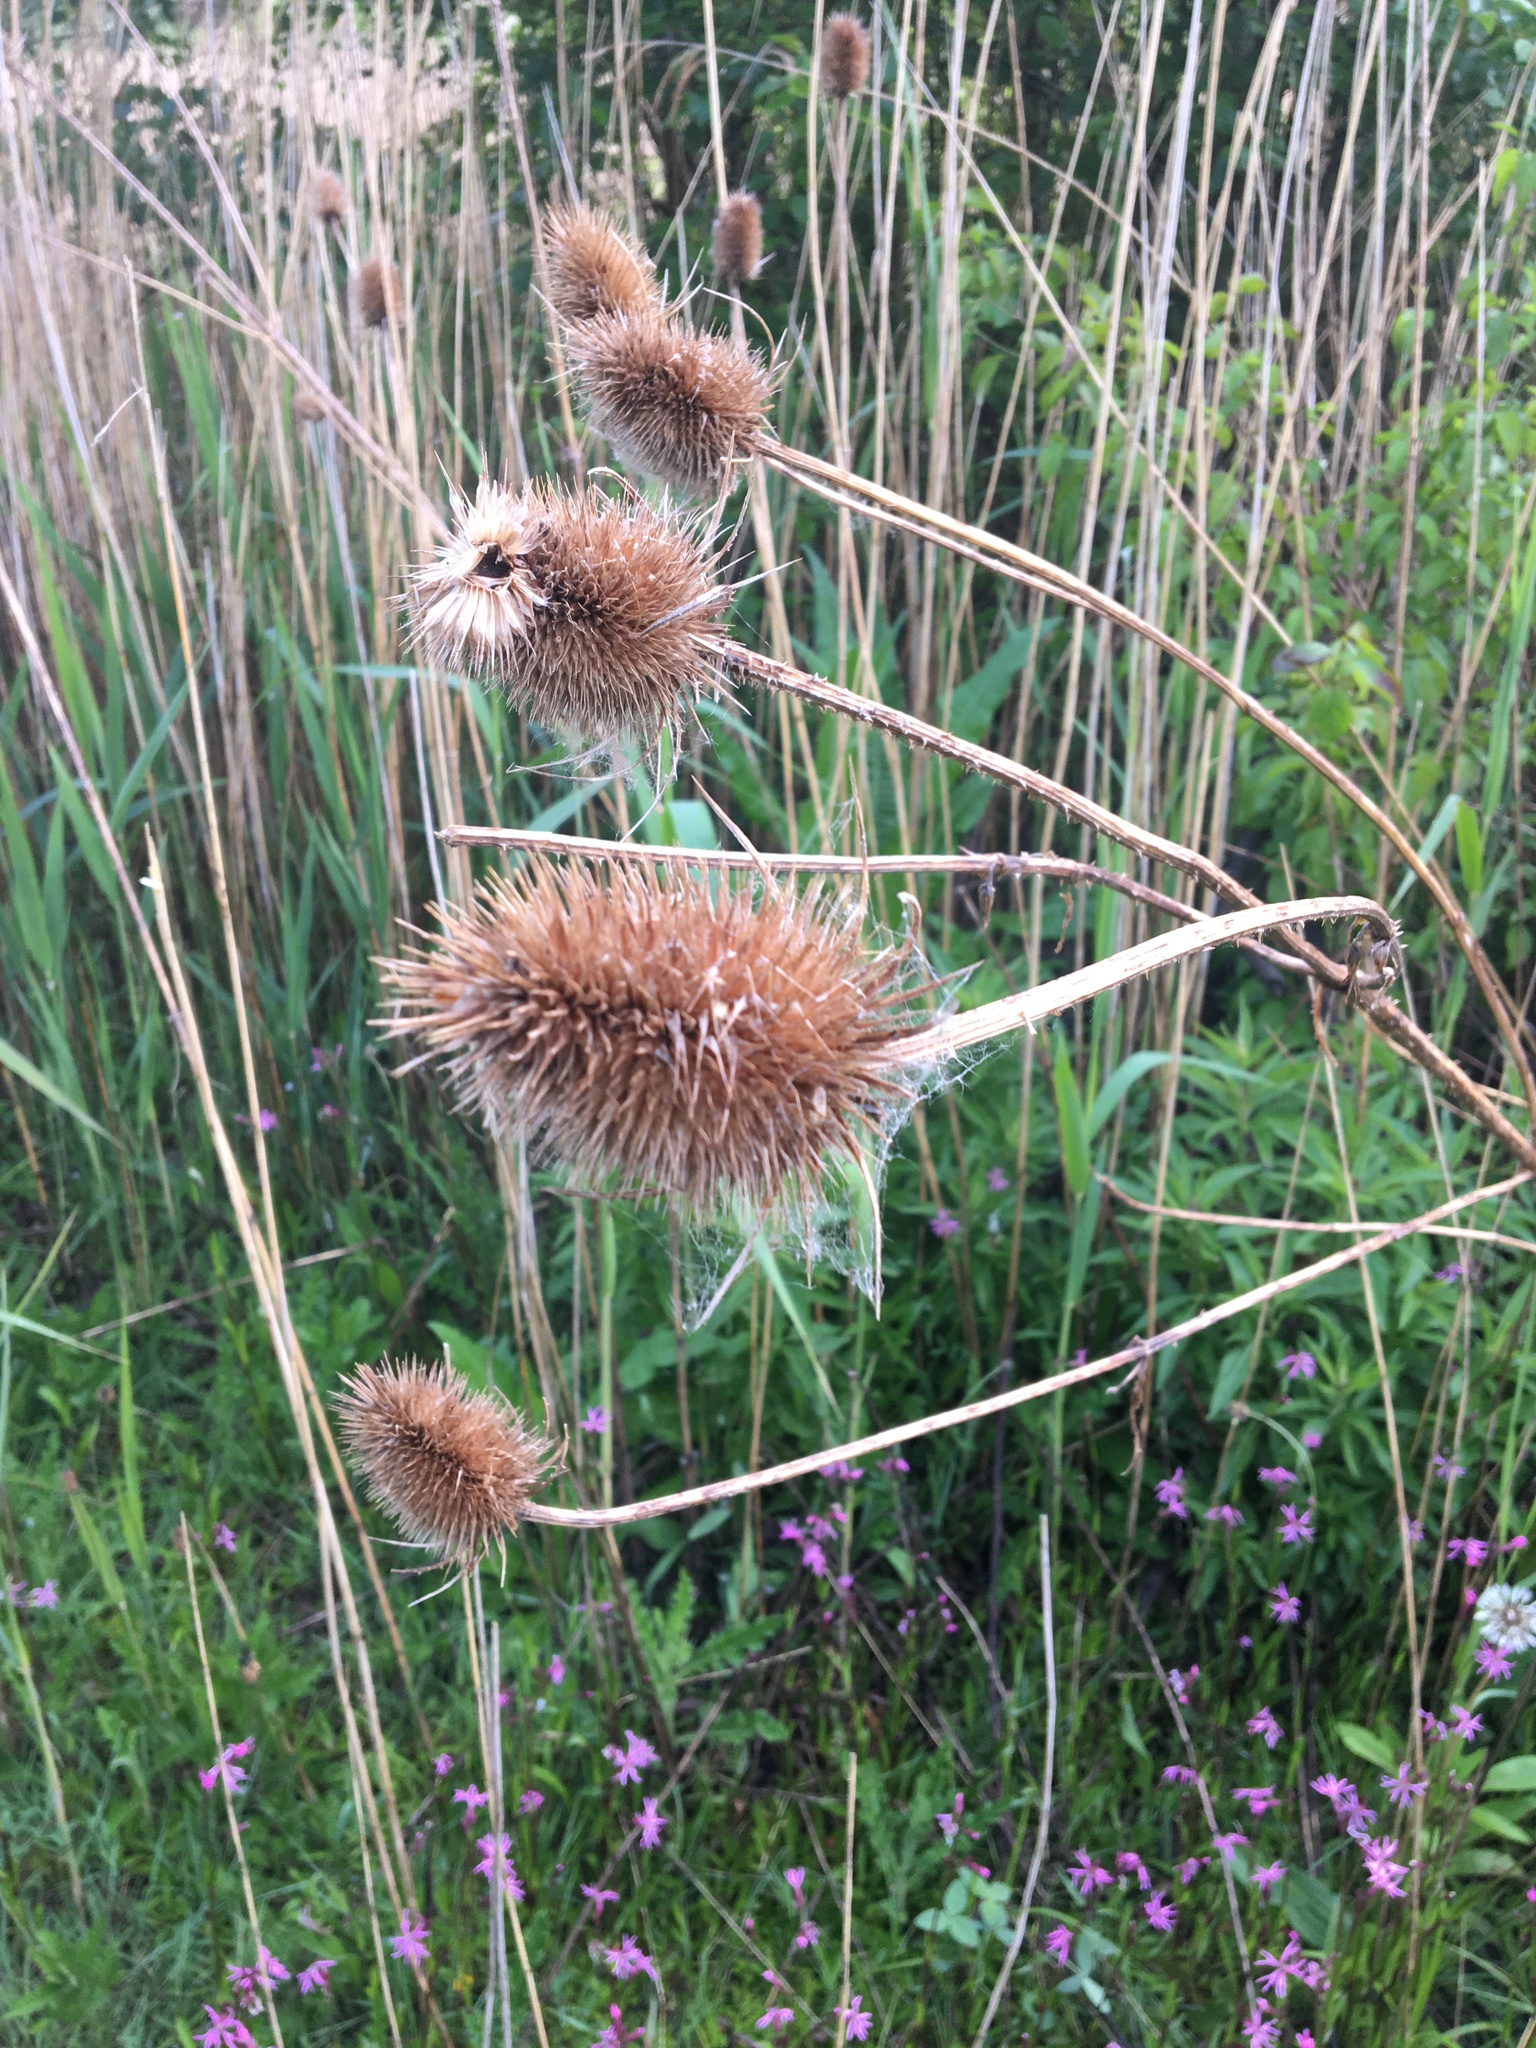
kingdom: Plantae
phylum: Tracheophyta
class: Magnoliopsida
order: Dipsacales
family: Caprifoliaceae
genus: Dipsacus
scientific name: Dipsacus fullonum
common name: Teasel
